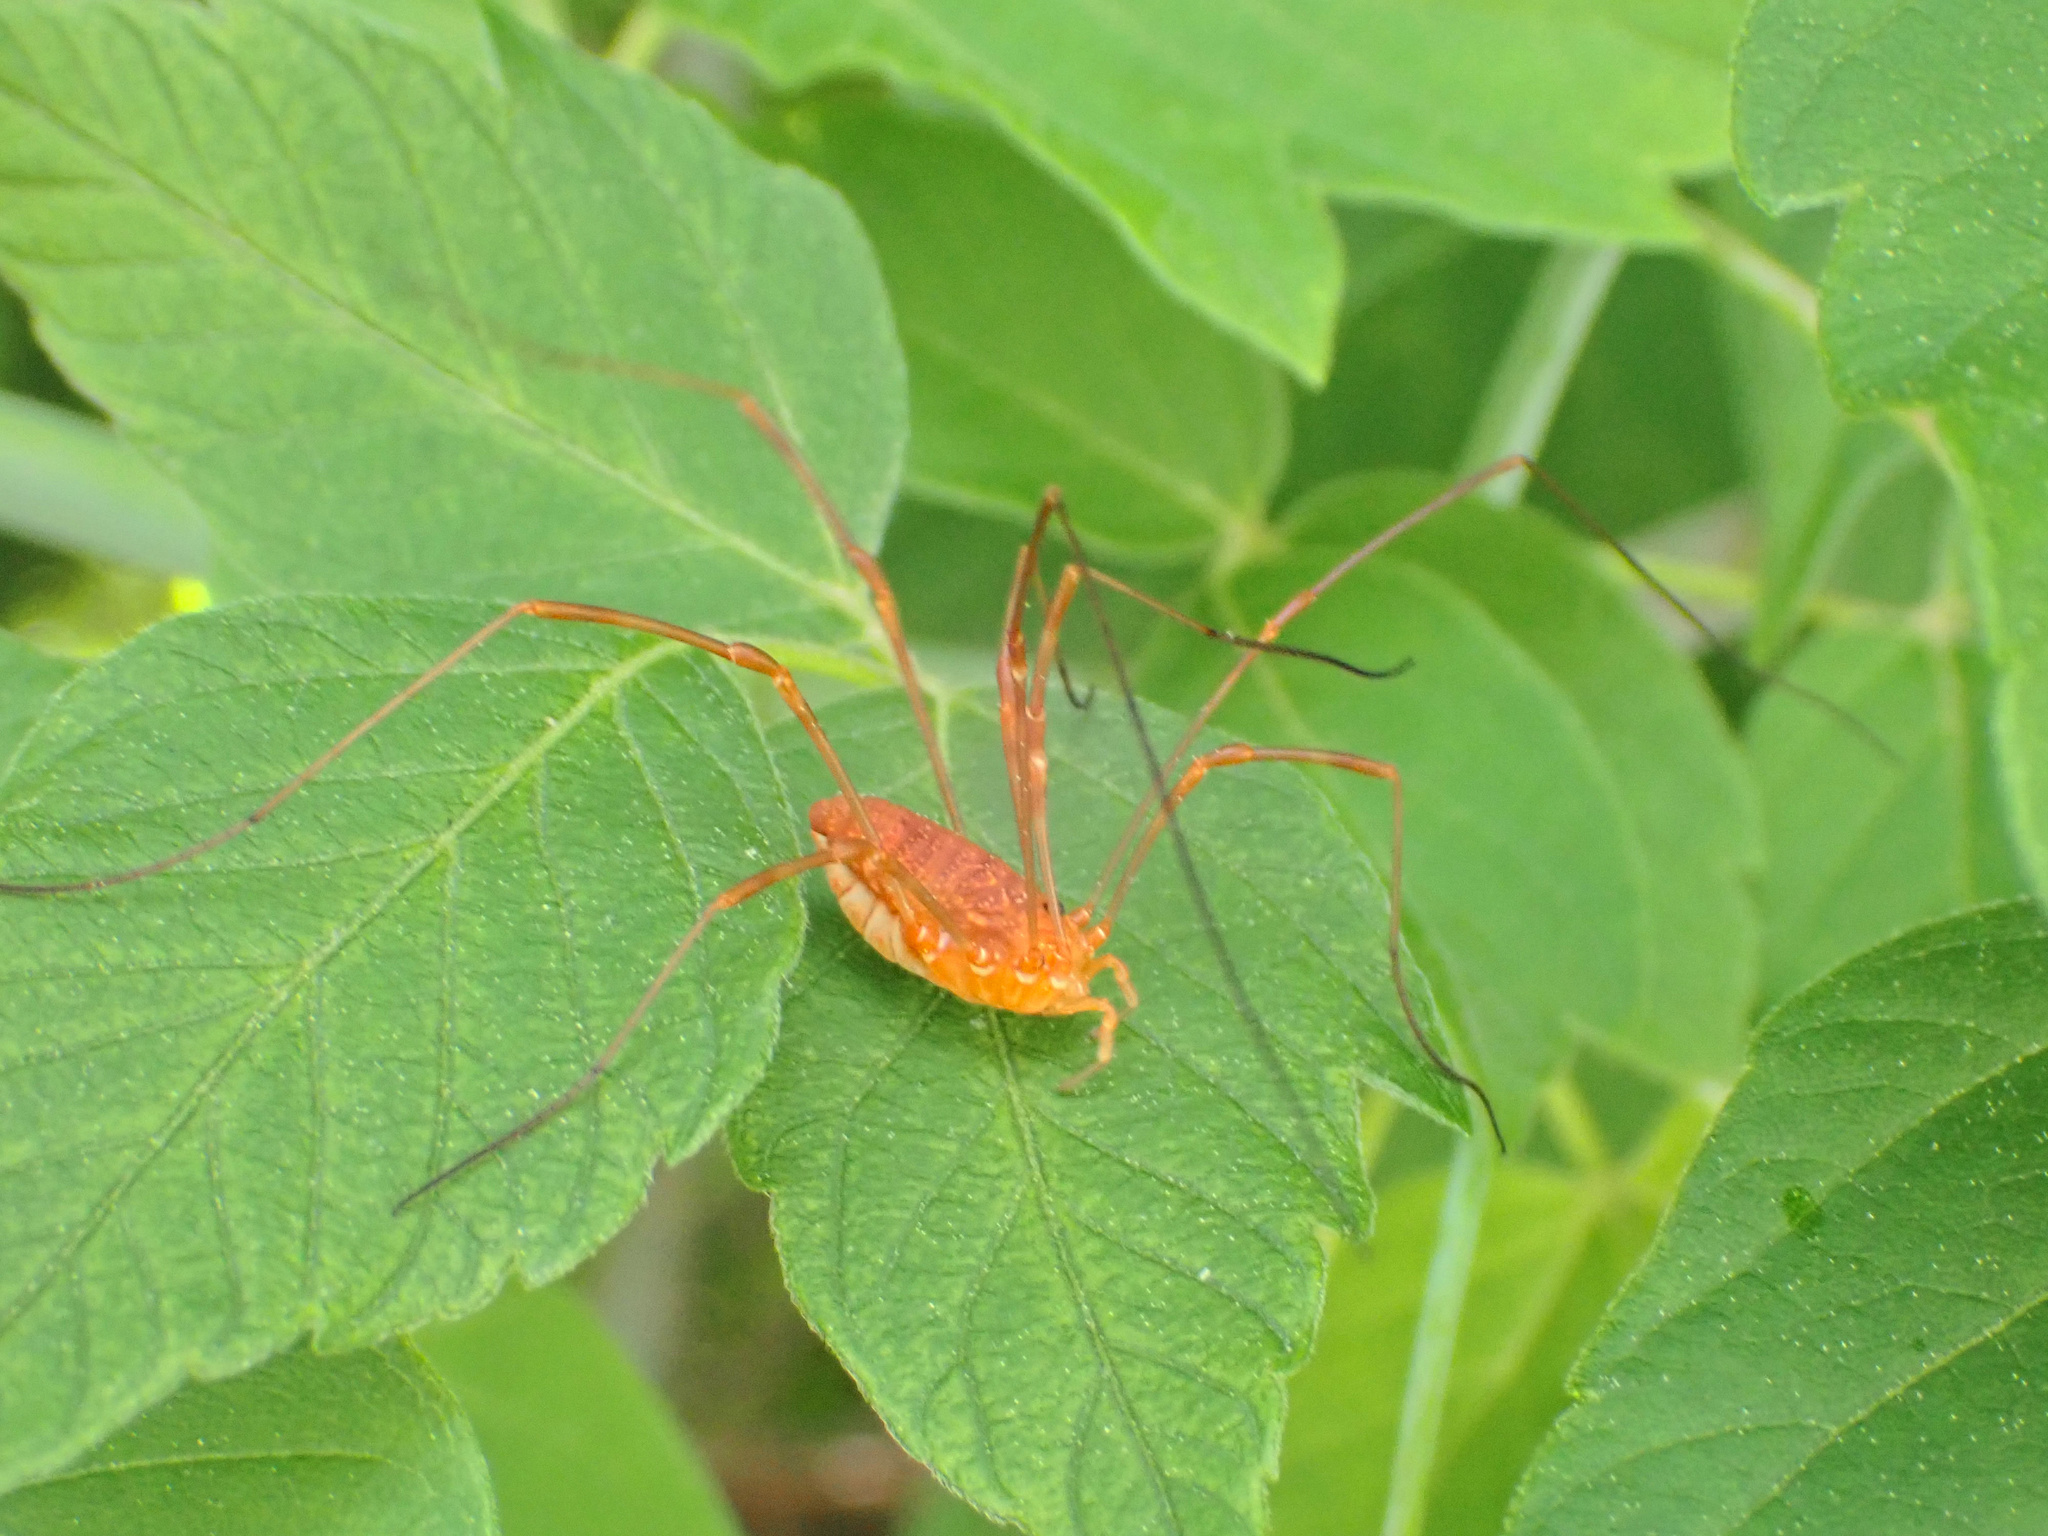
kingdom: Animalia
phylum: Arthropoda
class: Arachnida
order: Opiliones
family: Sclerosomatidae
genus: Leiobunum
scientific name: Leiobunum ventricosum
